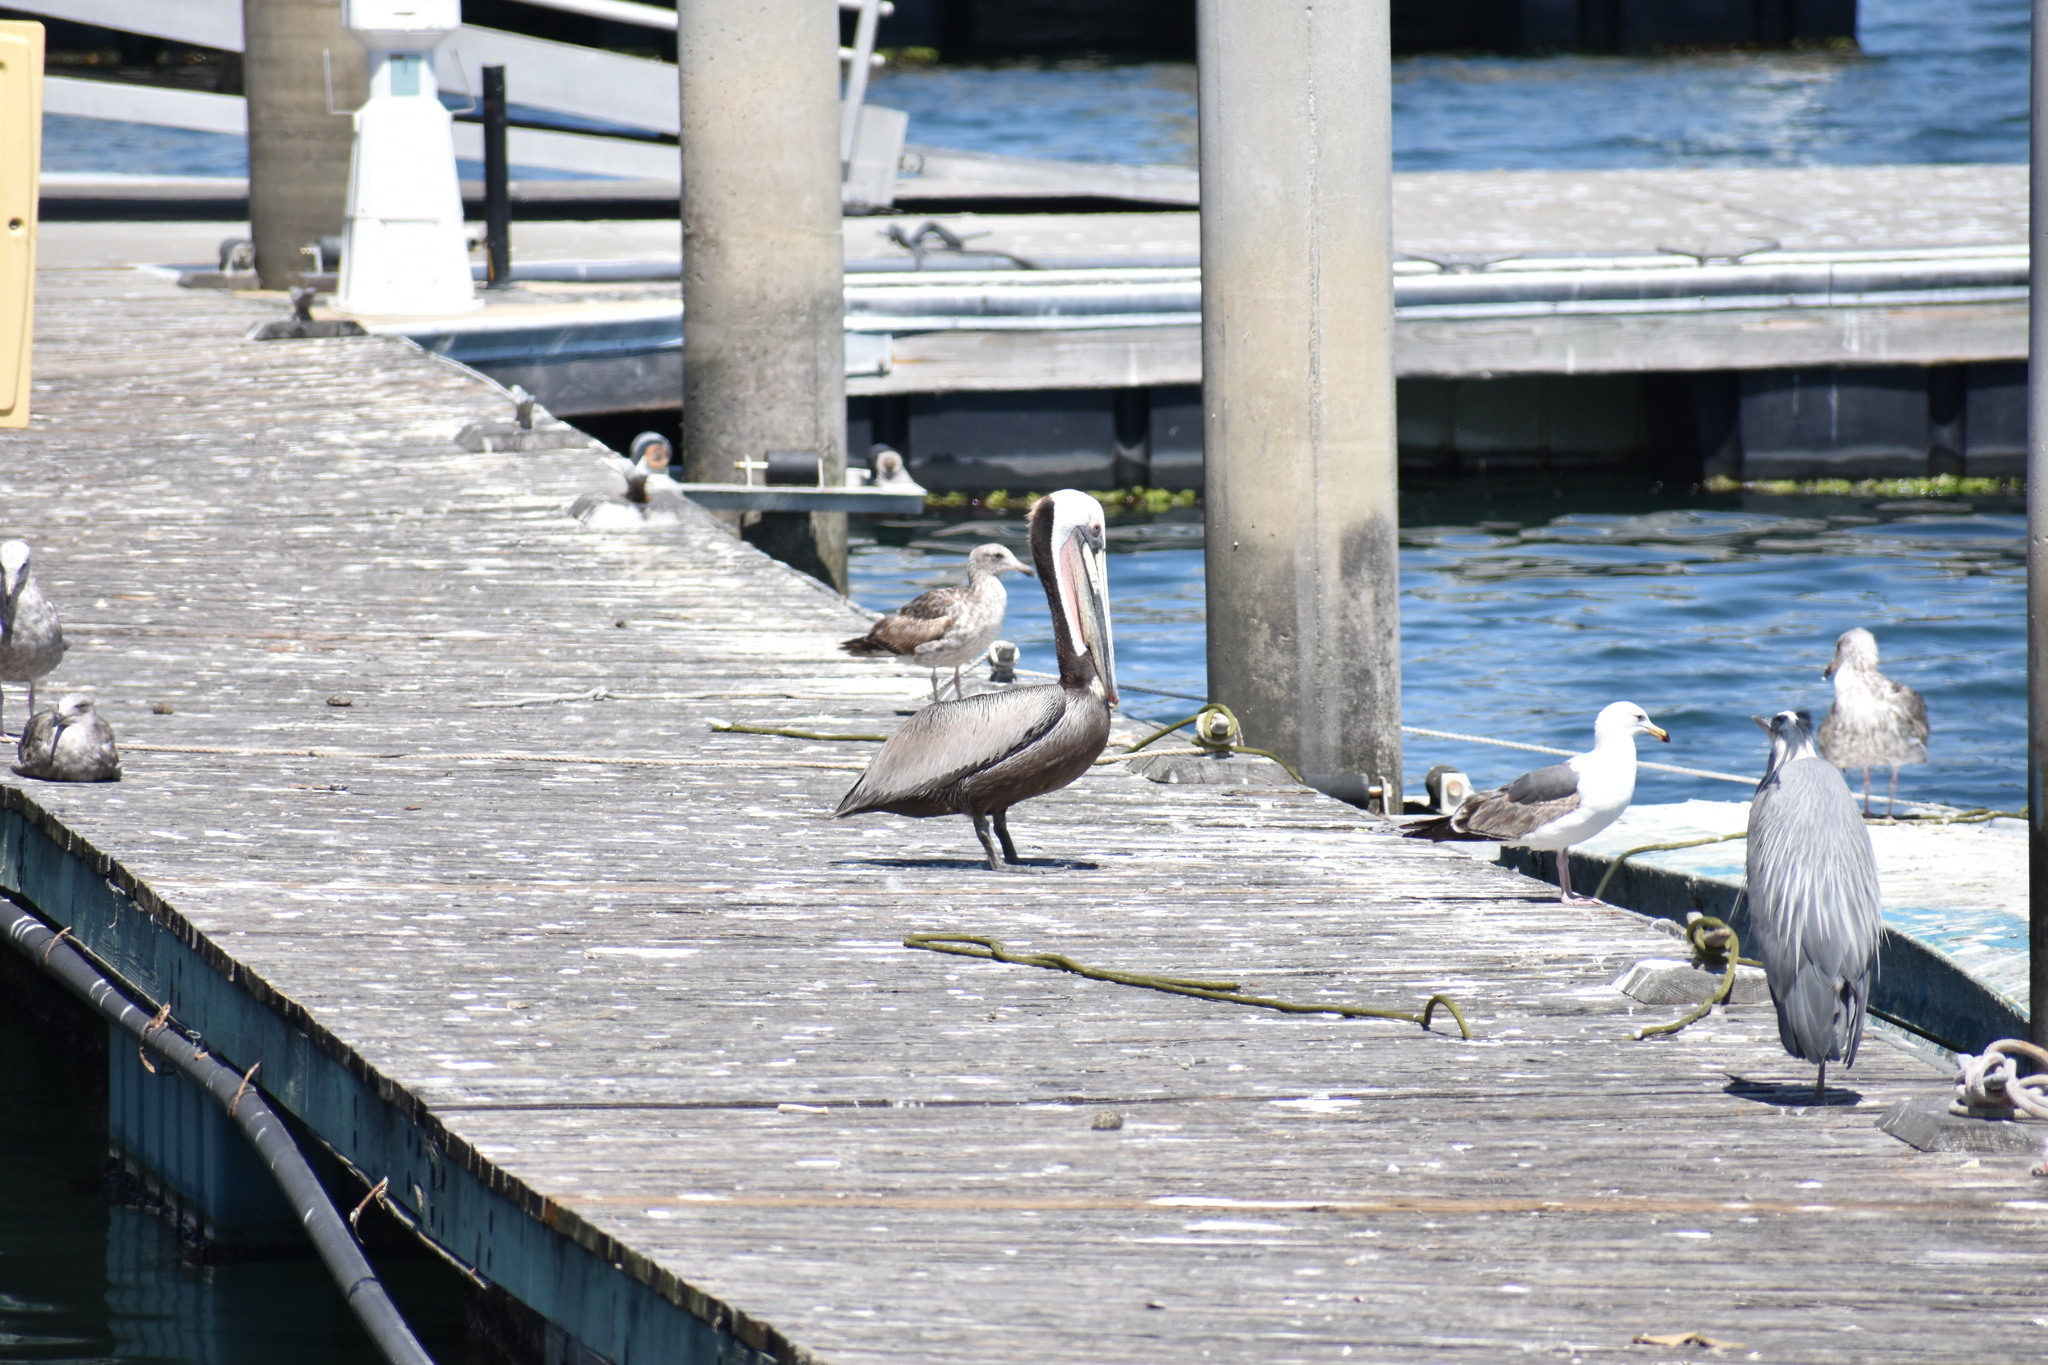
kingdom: Animalia
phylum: Chordata
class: Aves
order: Pelecaniformes
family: Pelecanidae
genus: Pelecanus
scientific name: Pelecanus occidentalis
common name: Brown pelican
